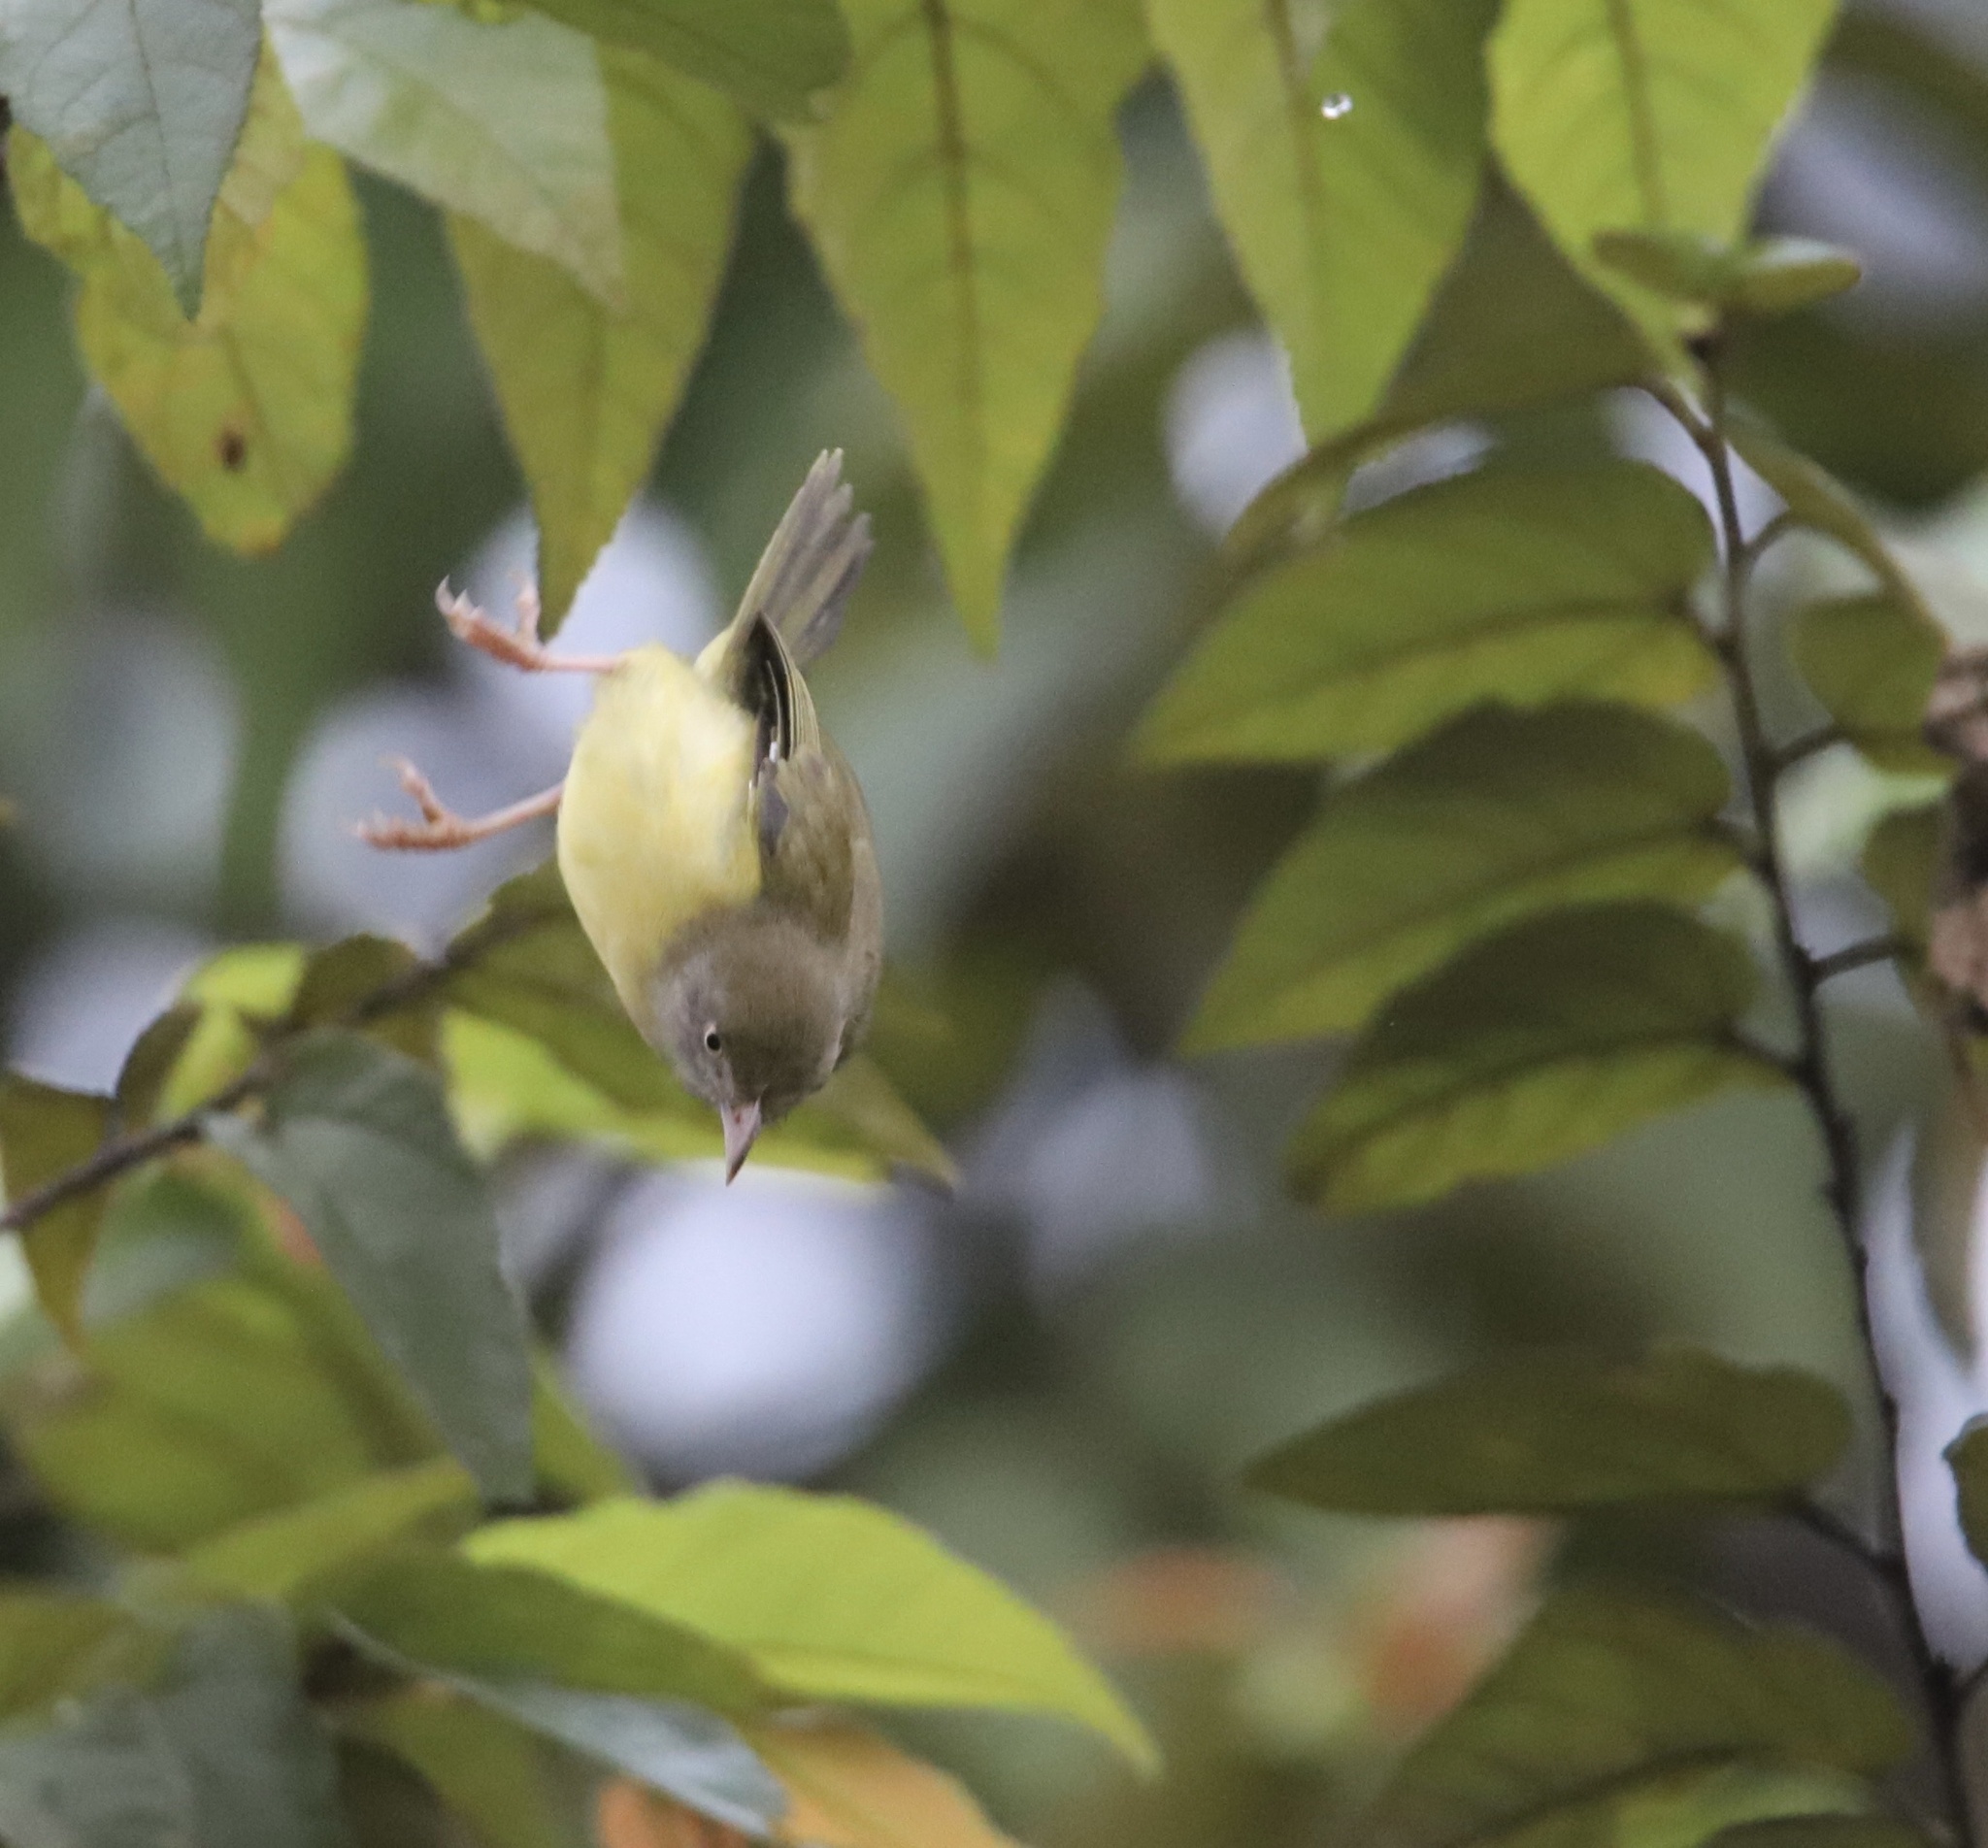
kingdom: Animalia
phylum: Chordata
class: Aves
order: Passeriformes
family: Vireonidae
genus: Hylophilus
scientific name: Hylophilus flavipes
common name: Scrub greenlet
